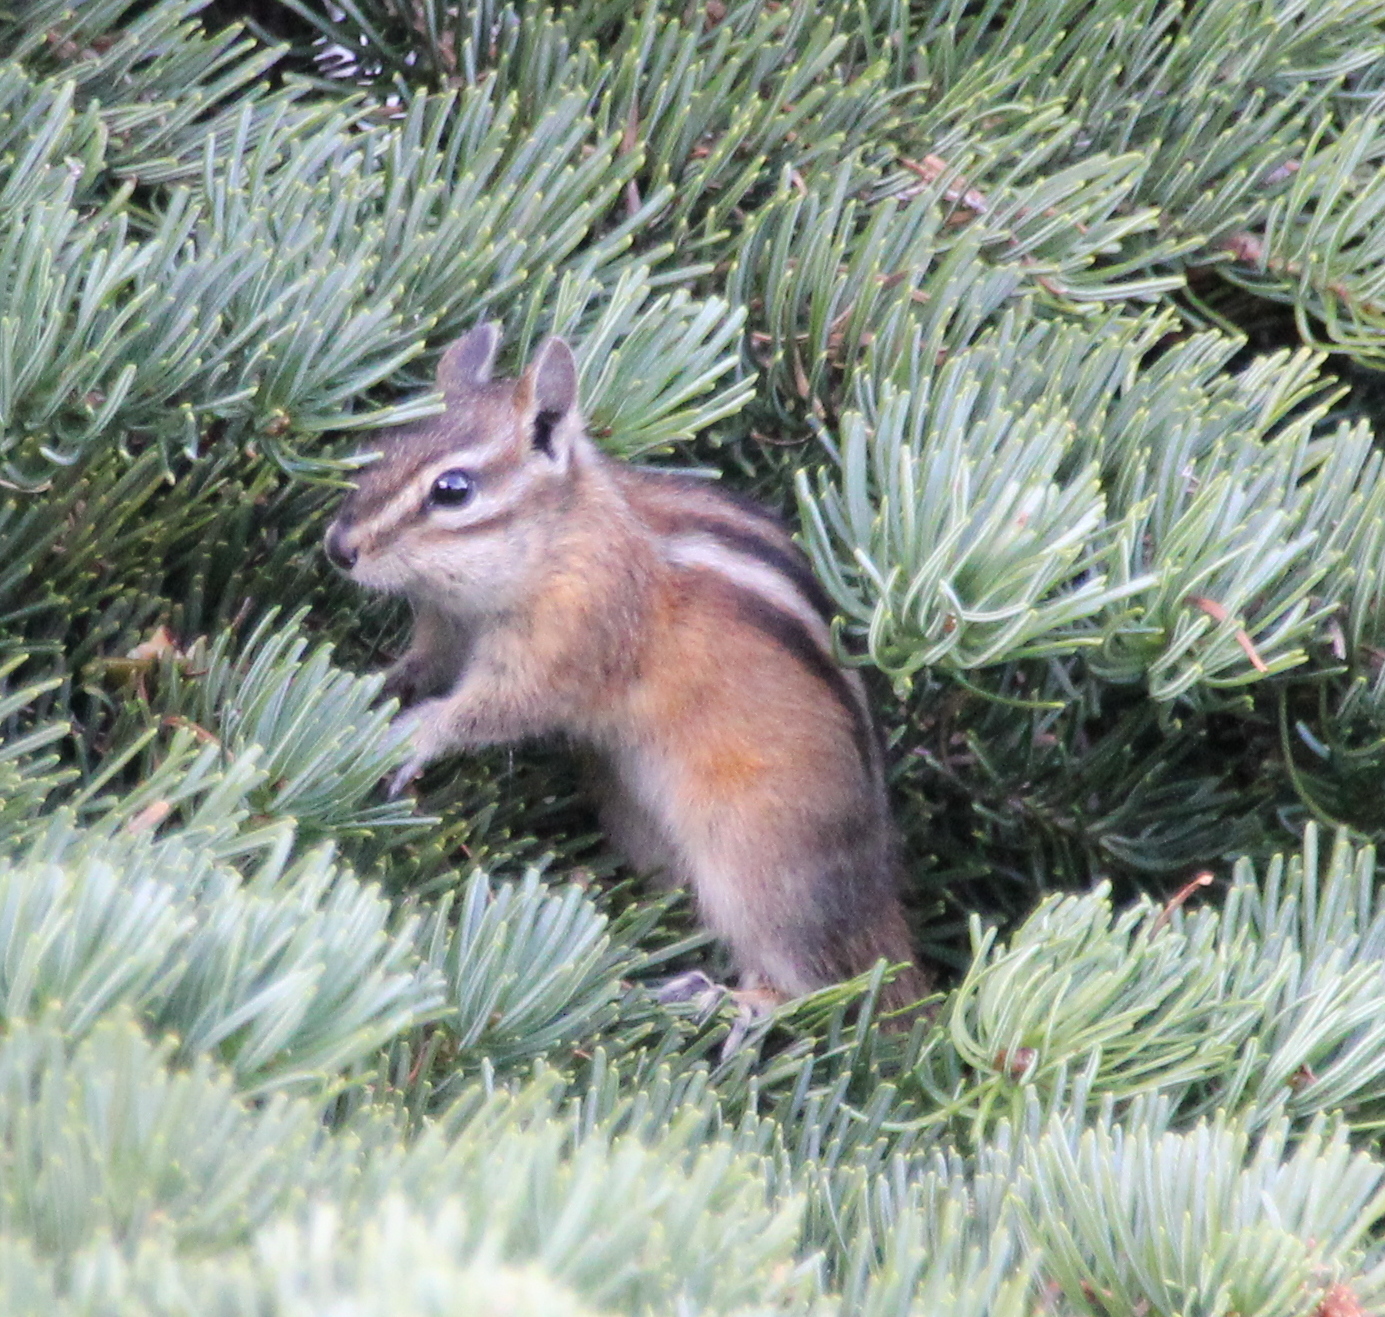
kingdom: Animalia
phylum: Chordata
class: Mammalia
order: Rodentia
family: Sciuridae
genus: Tamias
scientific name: Tamias amoenus
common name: Yellow-pine chipmunk
